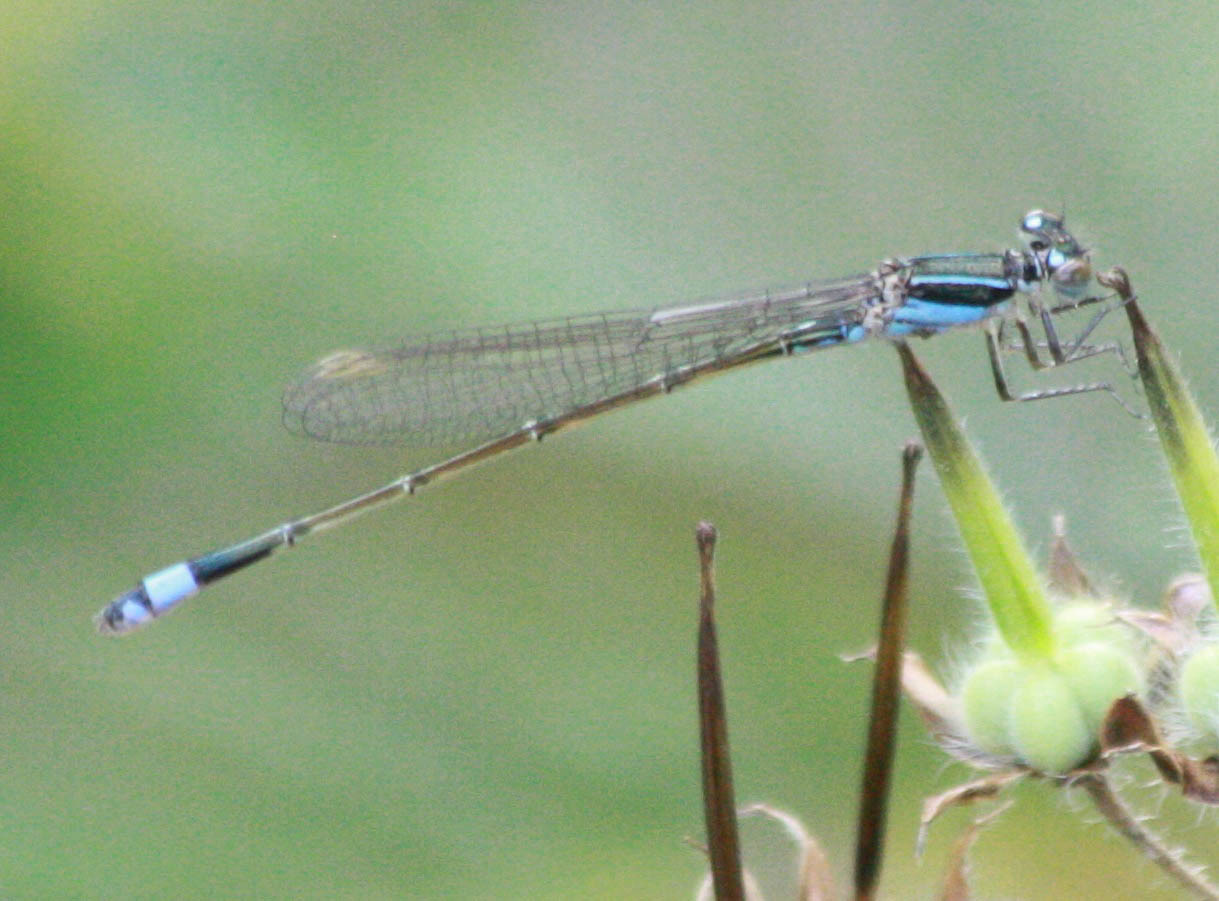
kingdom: Animalia
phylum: Arthropoda
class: Insecta
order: Odonata
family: Coenagrionidae
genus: Ischnura
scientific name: Ischnura ramburii
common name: Rambur's forktail
